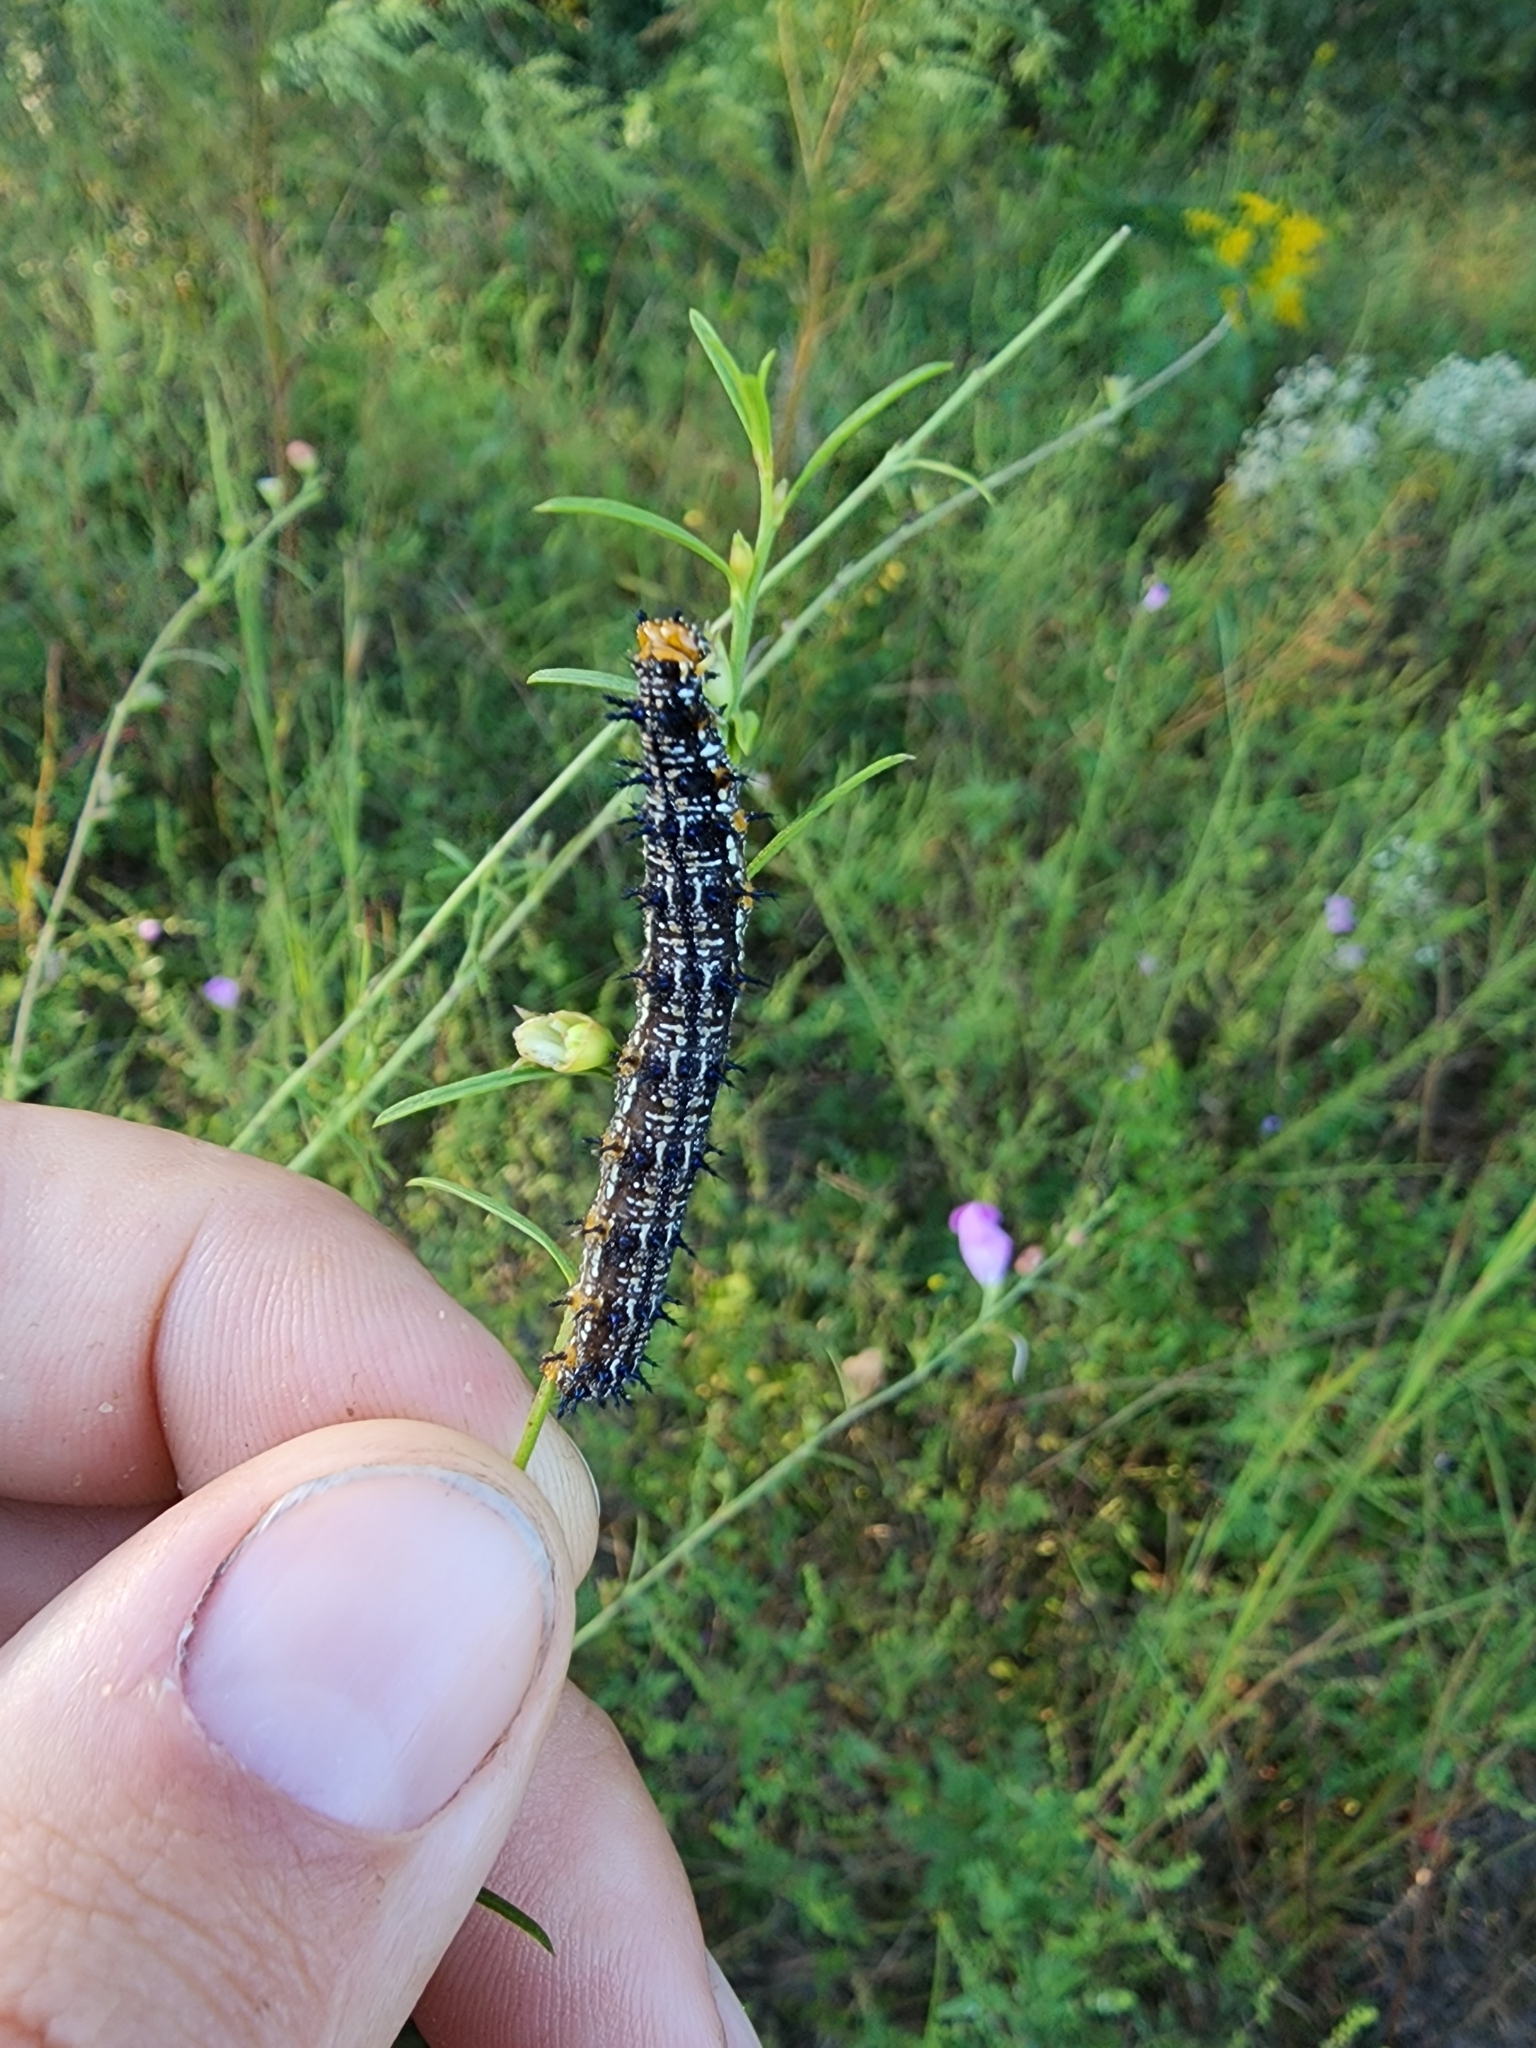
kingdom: Animalia
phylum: Arthropoda
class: Insecta
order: Lepidoptera
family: Nymphalidae
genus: Junonia
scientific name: Junonia coenia
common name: Common buckeye
